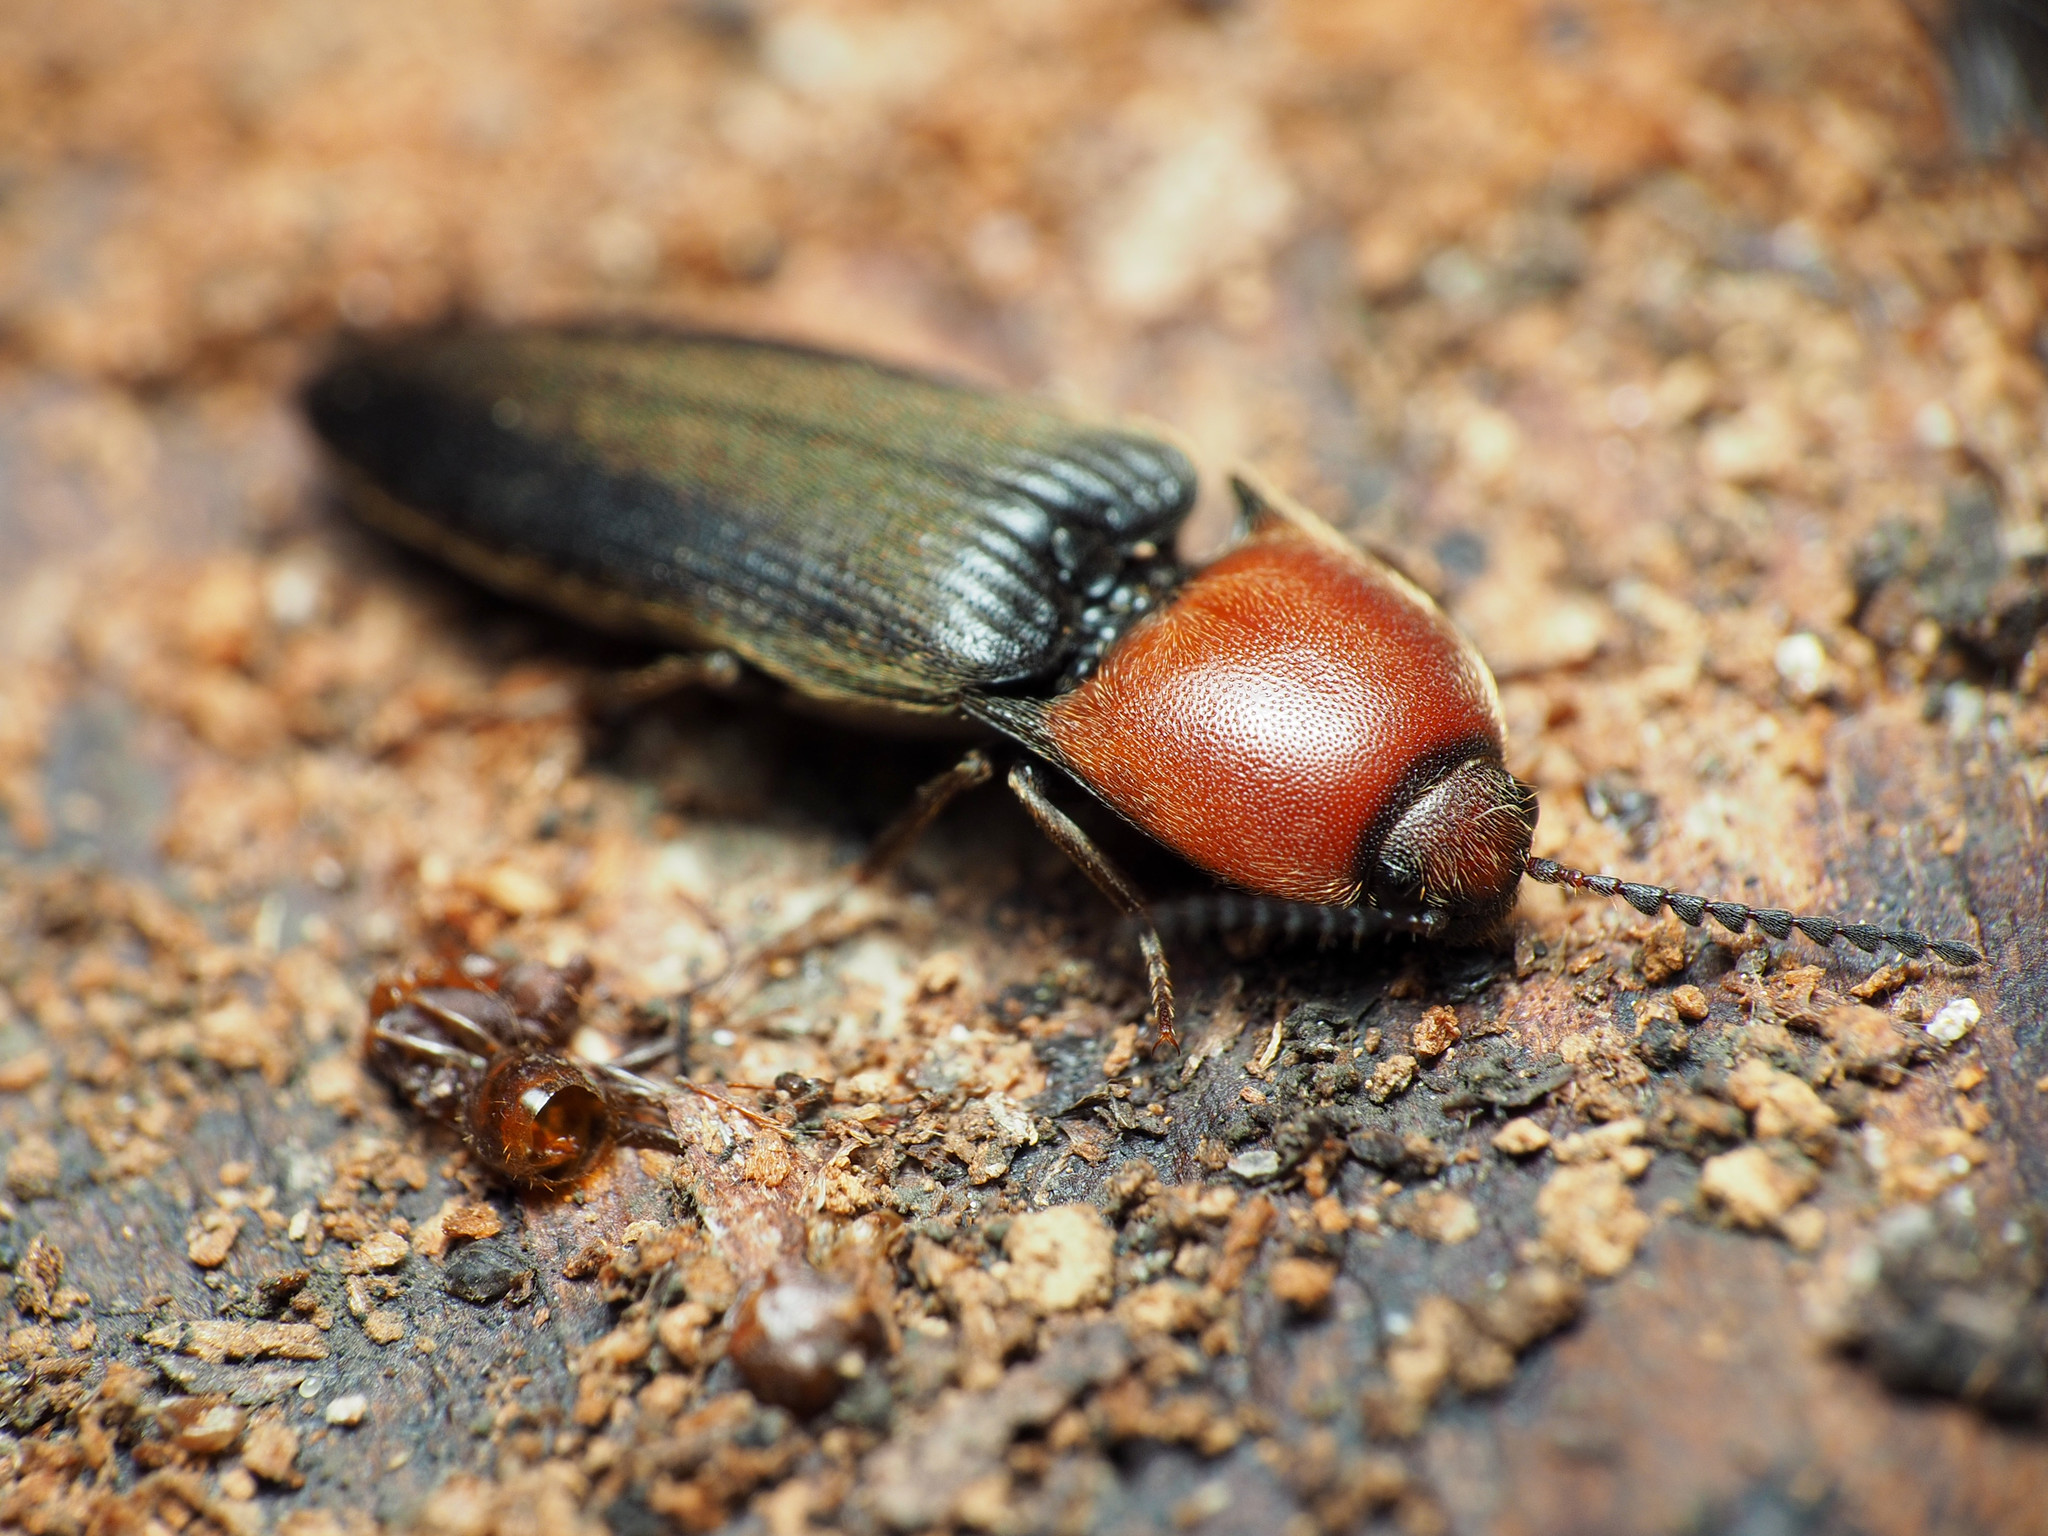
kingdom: Animalia
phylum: Arthropoda
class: Insecta
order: Coleoptera
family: Elateridae
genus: Ampedus
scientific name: Ampedus rubricollis
